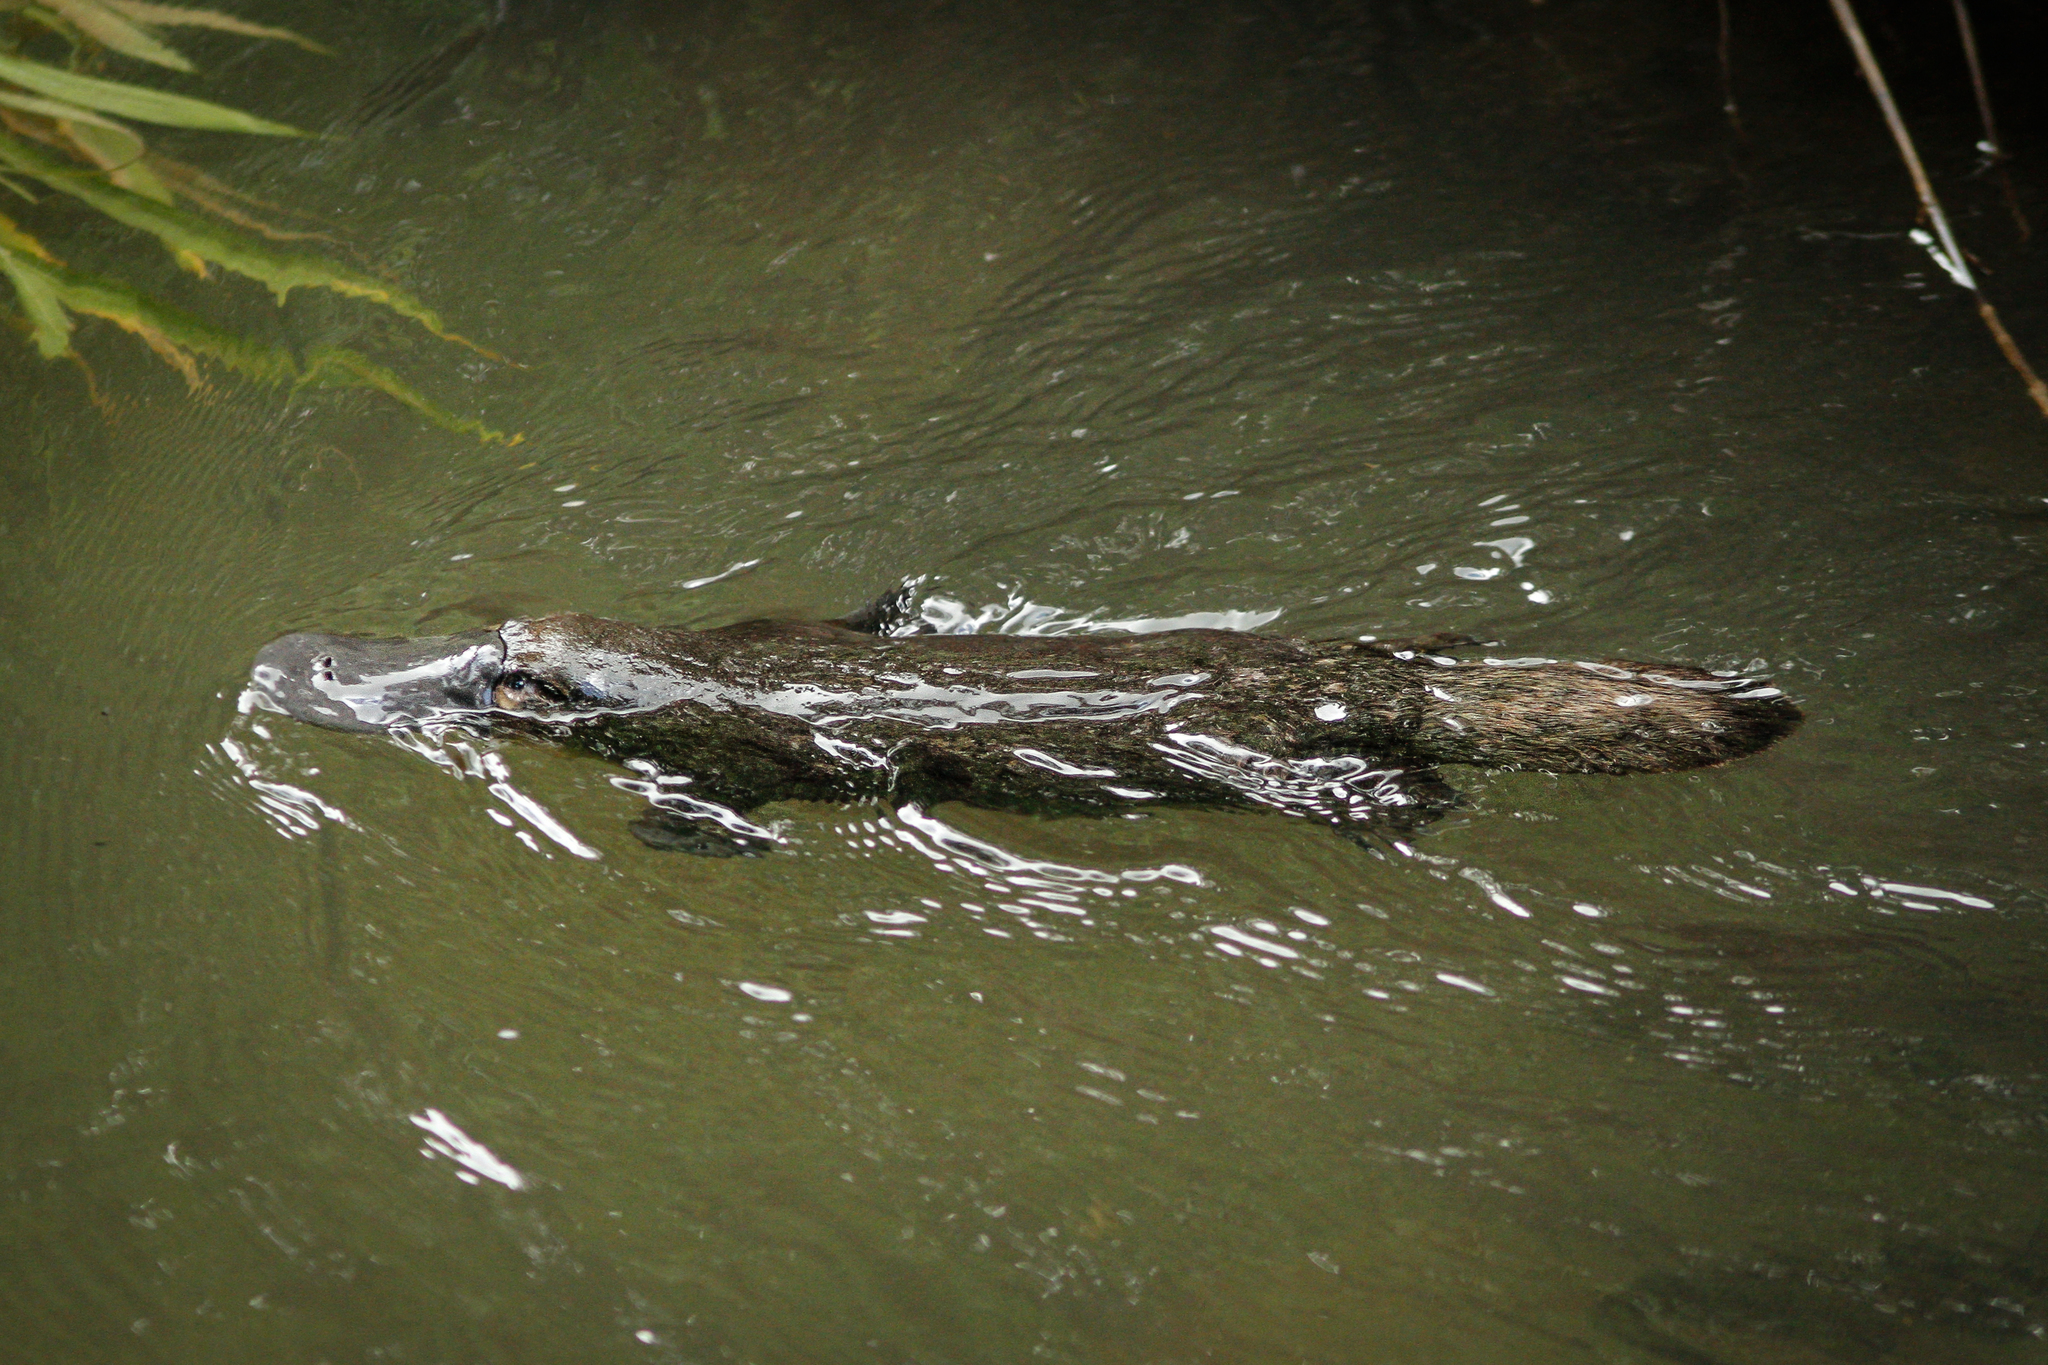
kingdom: Animalia
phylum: Chordata
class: Mammalia
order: Monotremata
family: Ornithorhynchidae
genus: Ornithorhynchus
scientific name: Ornithorhynchus anatinus
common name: Platypus
